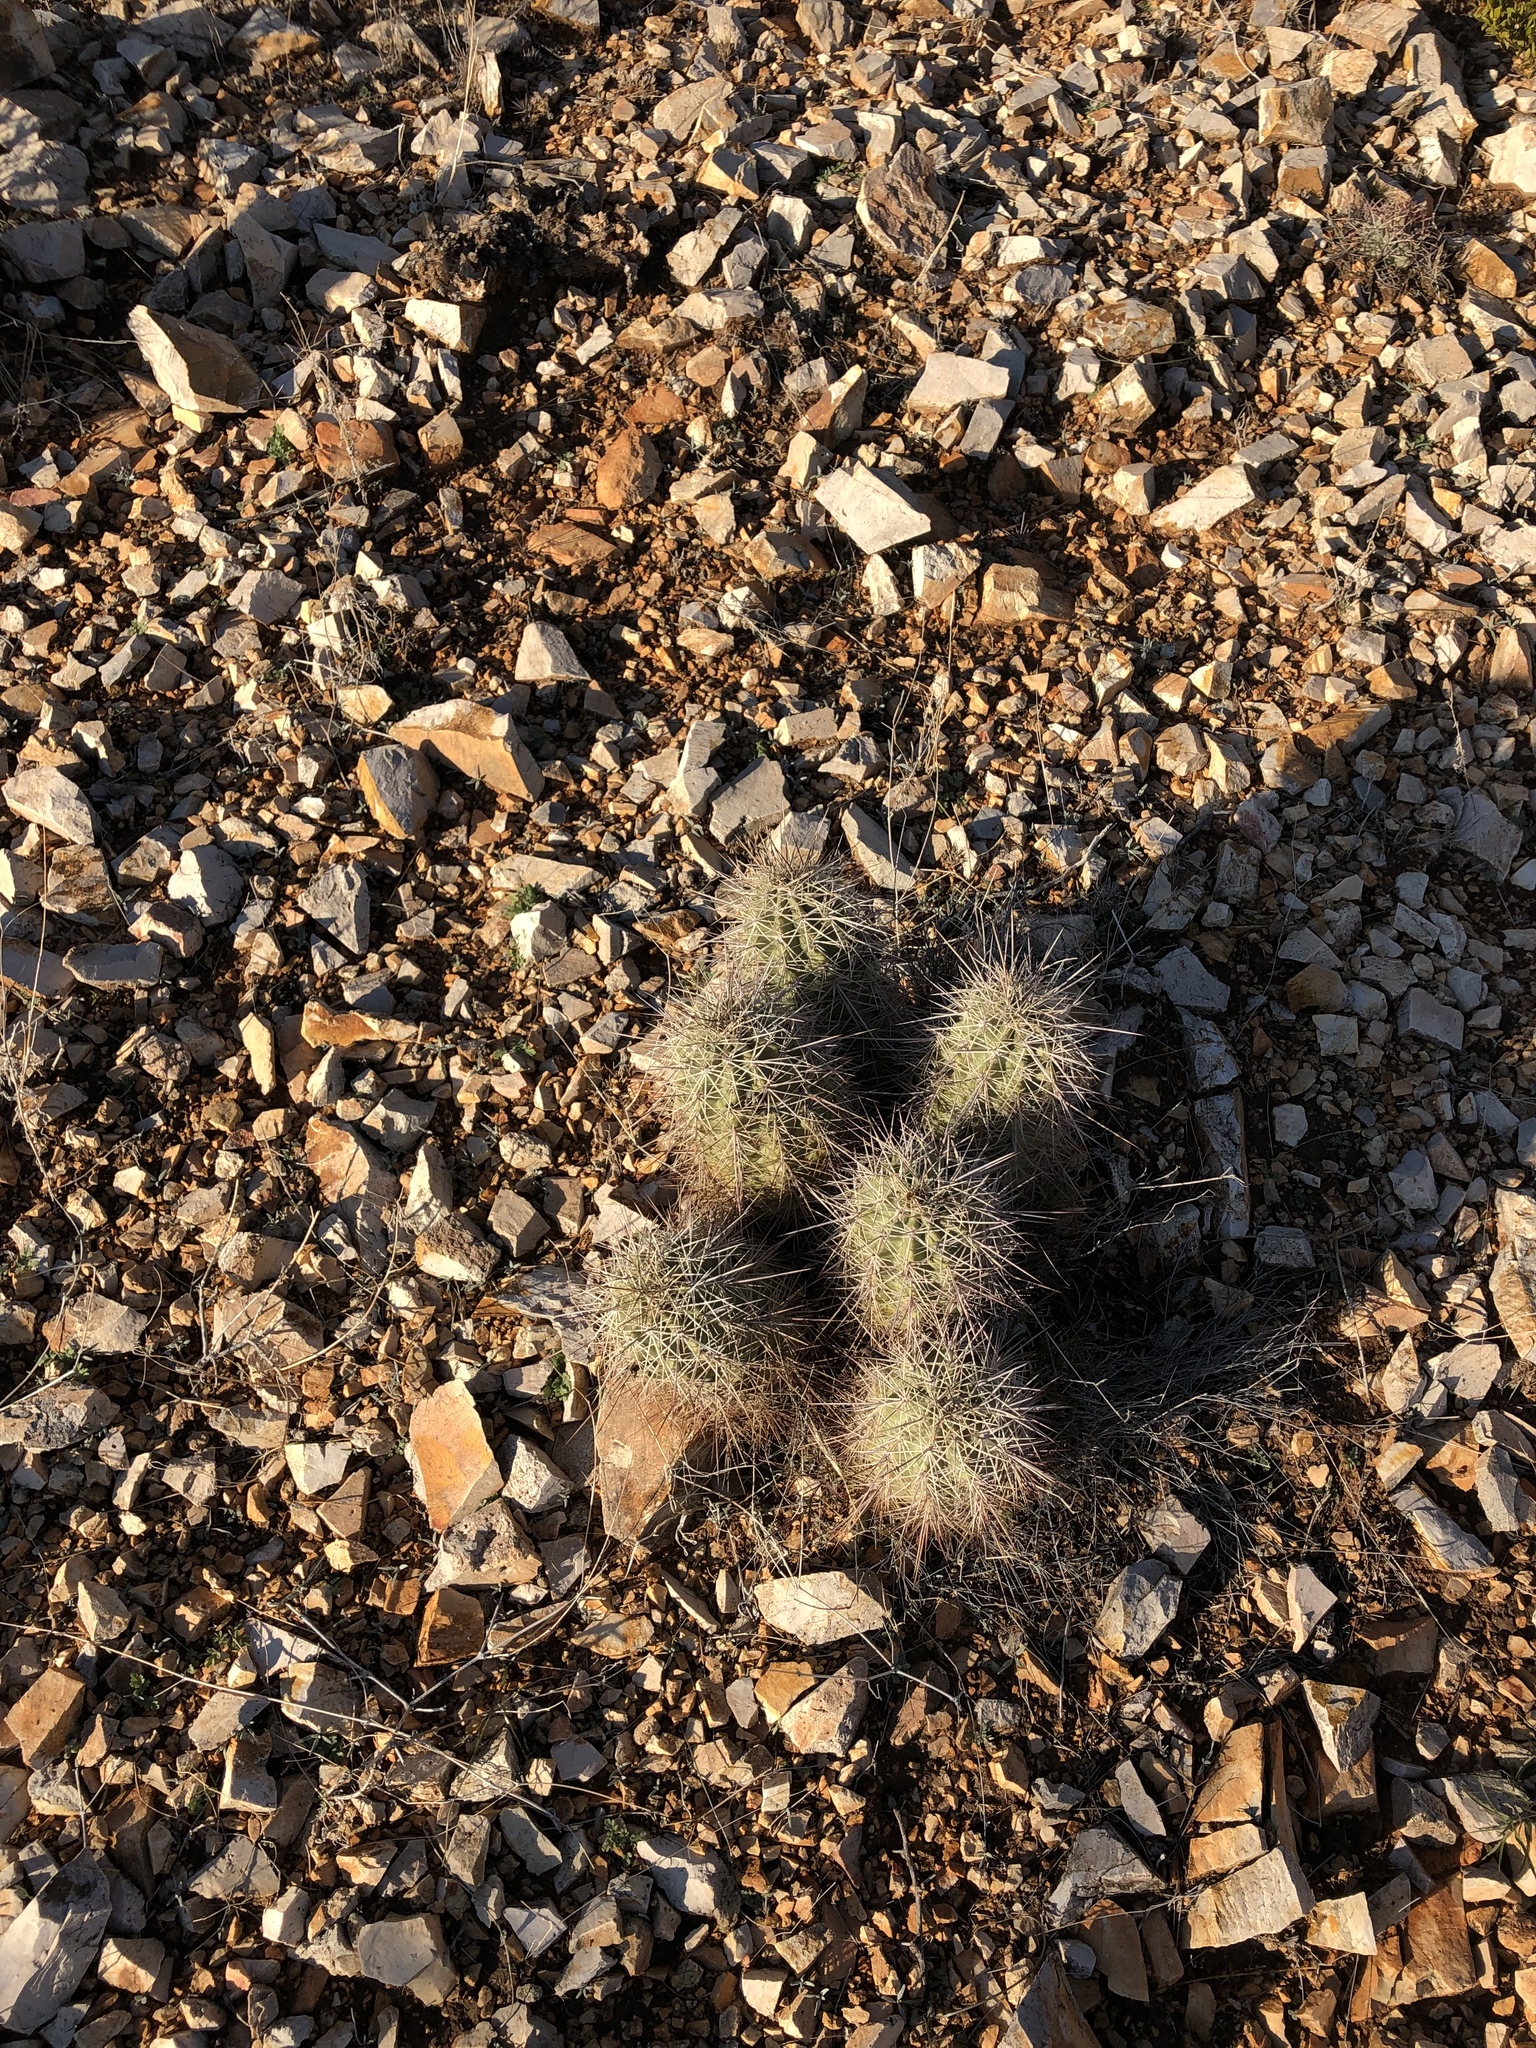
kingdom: Plantae
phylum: Tracheophyta
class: Magnoliopsida
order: Caryophyllales
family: Cactaceae
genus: Echinocereus
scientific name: Echinocereus coccineus
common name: Scarlet hedgehog cactus
